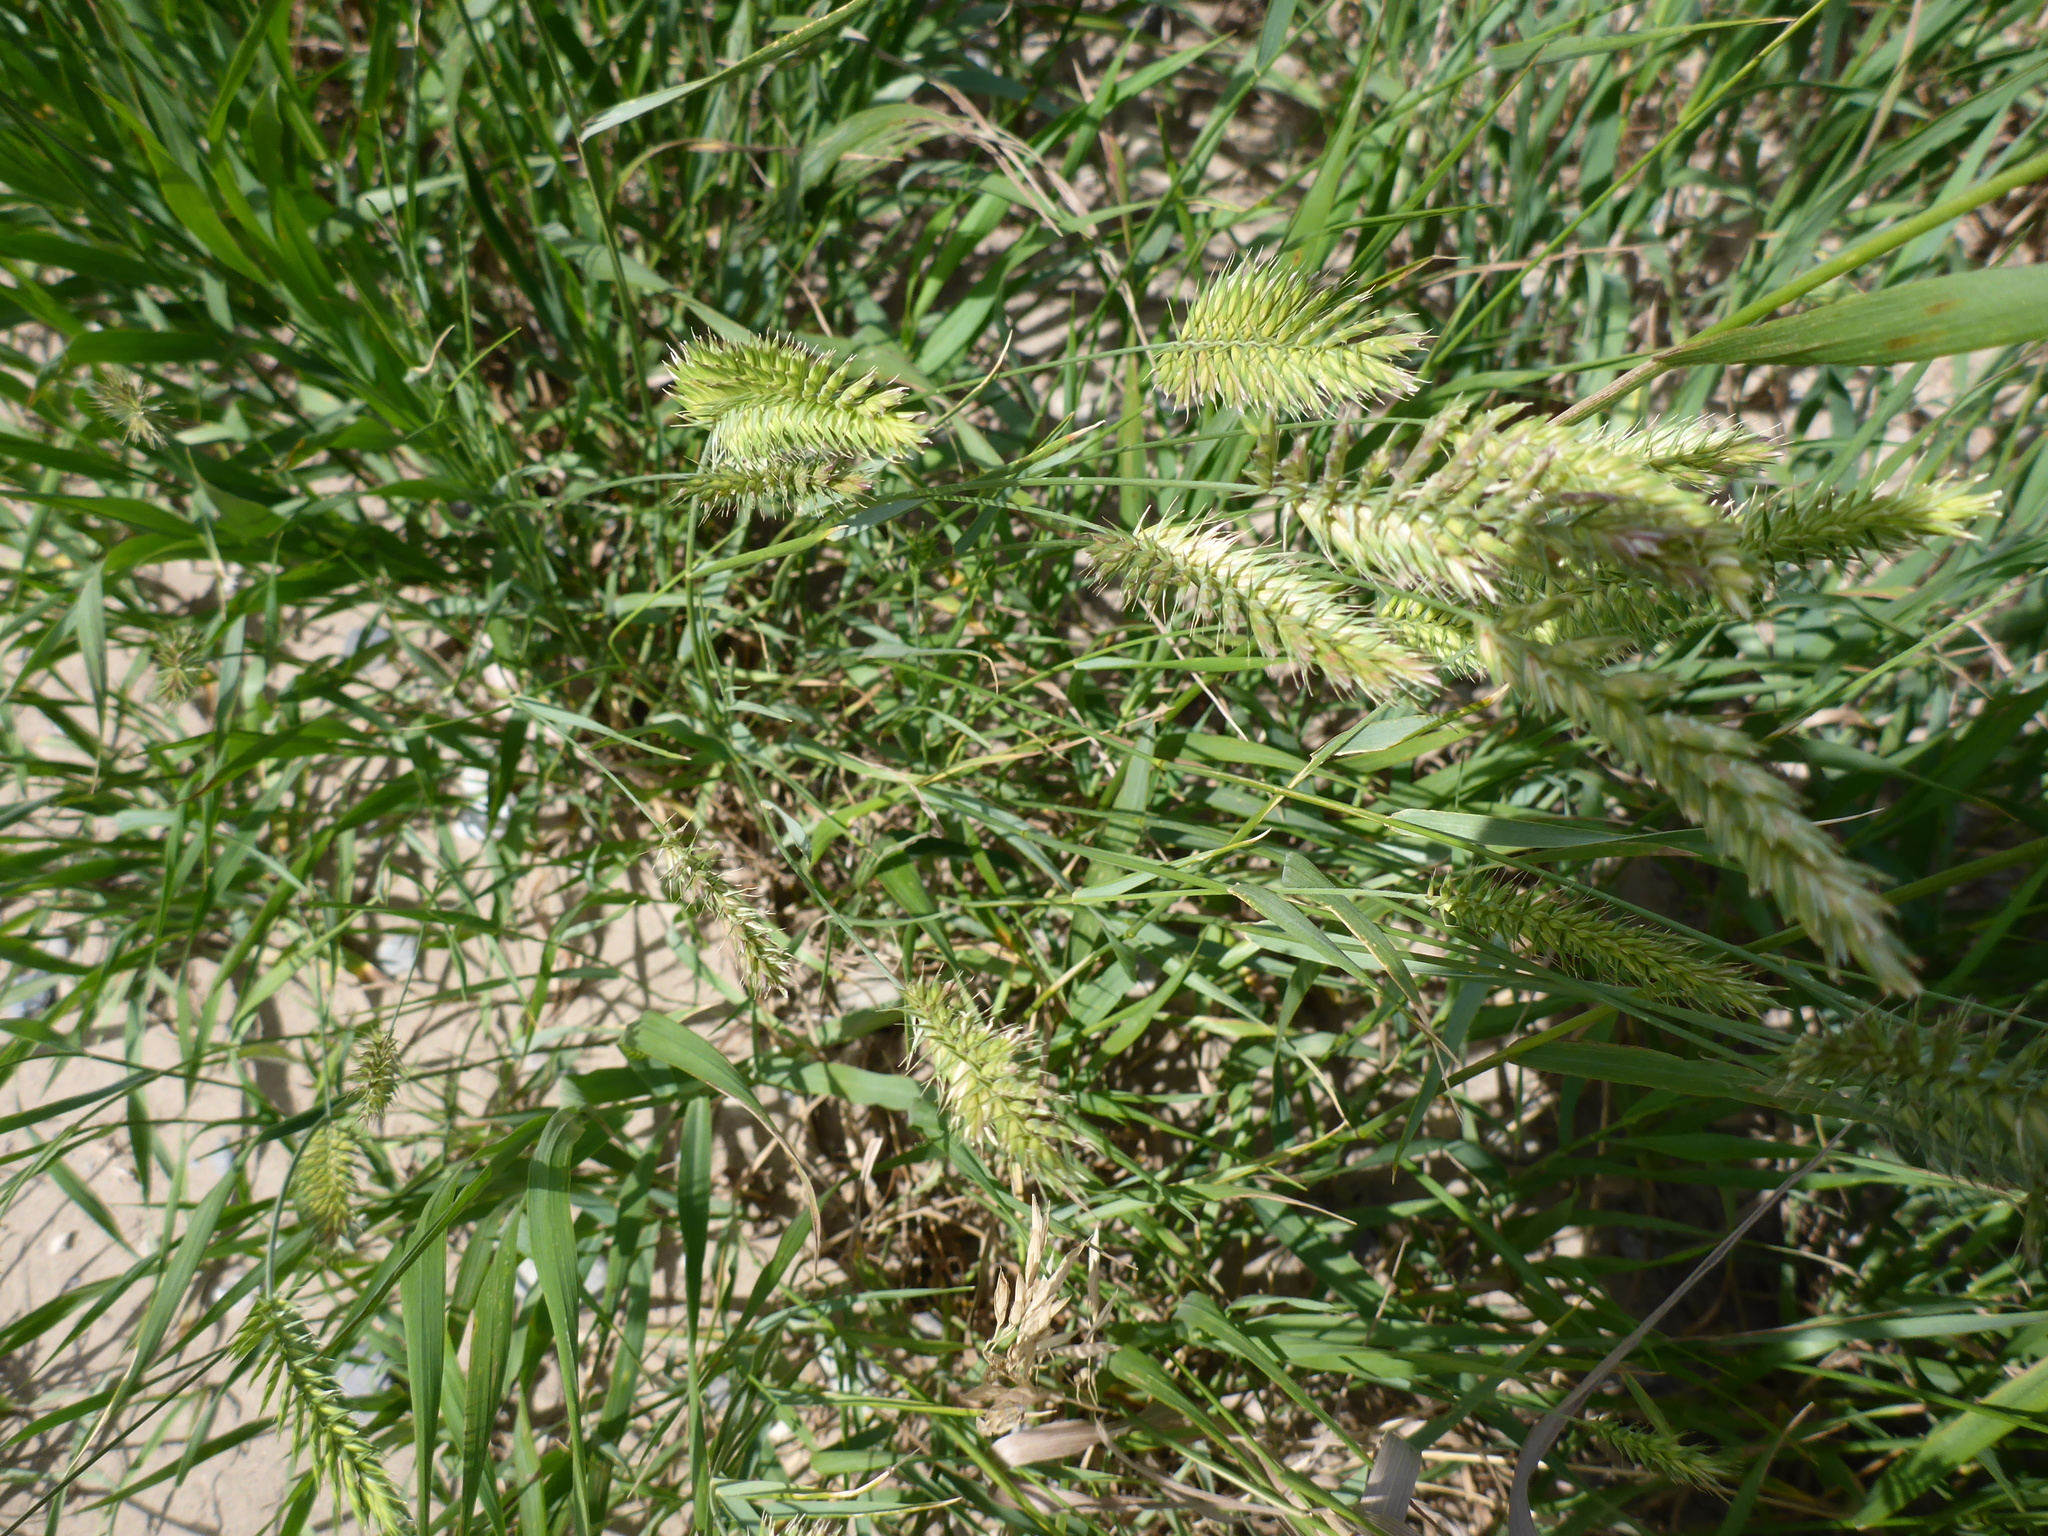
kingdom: Plantae
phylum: Tracheophyta
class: Liliopsida
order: Poales
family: Poaceae
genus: Agropyron
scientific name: Agropyron cristatum
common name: Crested wheatgrass
